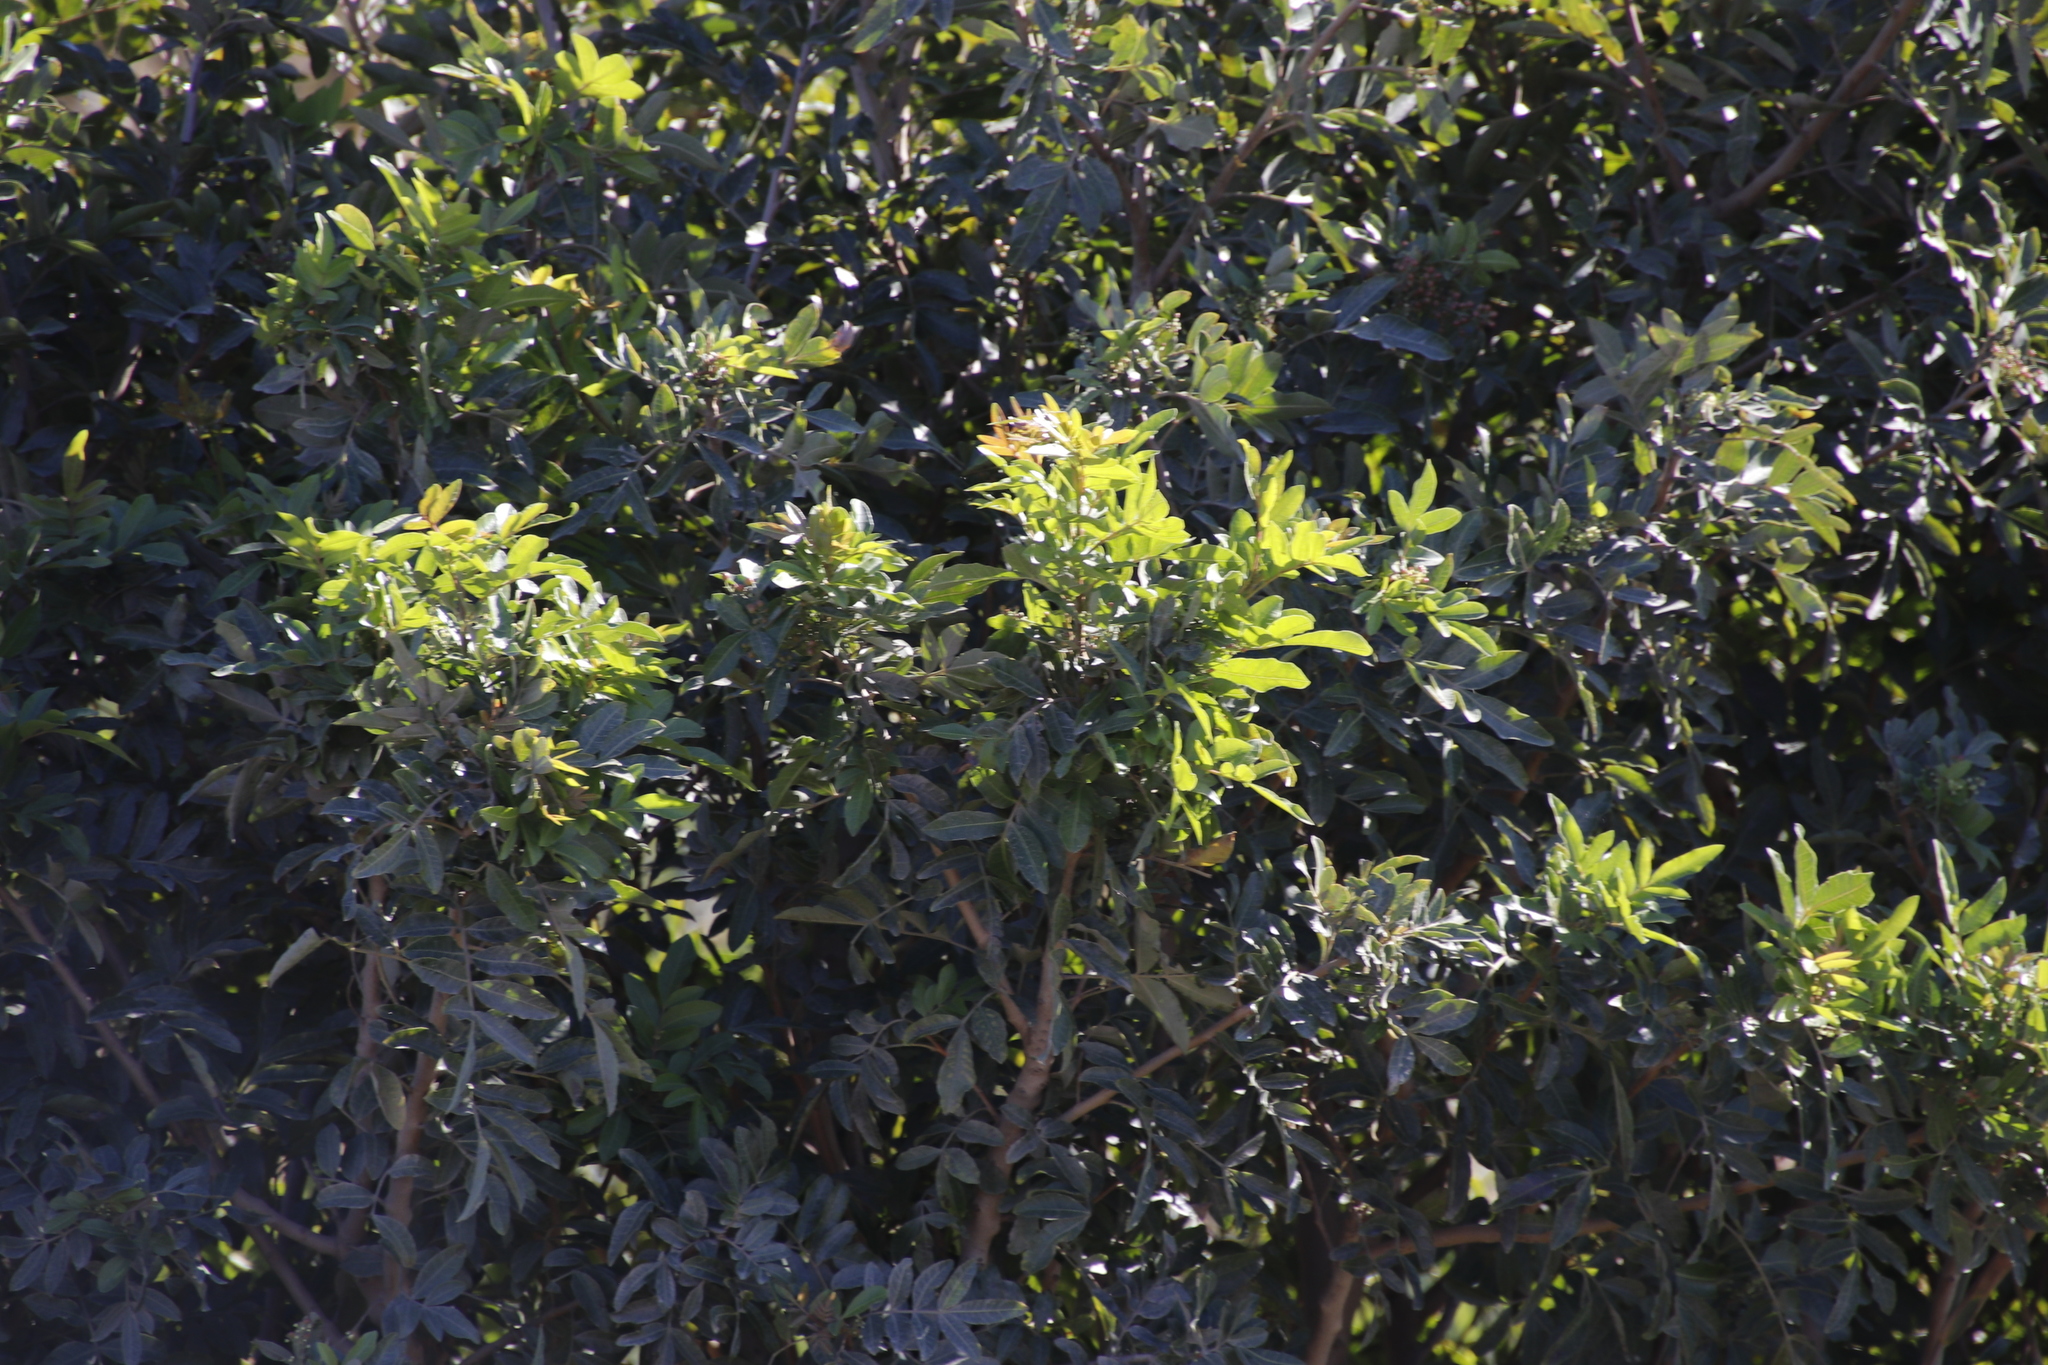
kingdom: Plantae
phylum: Tracheophyta
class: Magnoliopsida
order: Sapindales
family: Anacardiaceae
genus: Schinus
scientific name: Schinus terebinthifolia
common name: Brazilian peppertree
